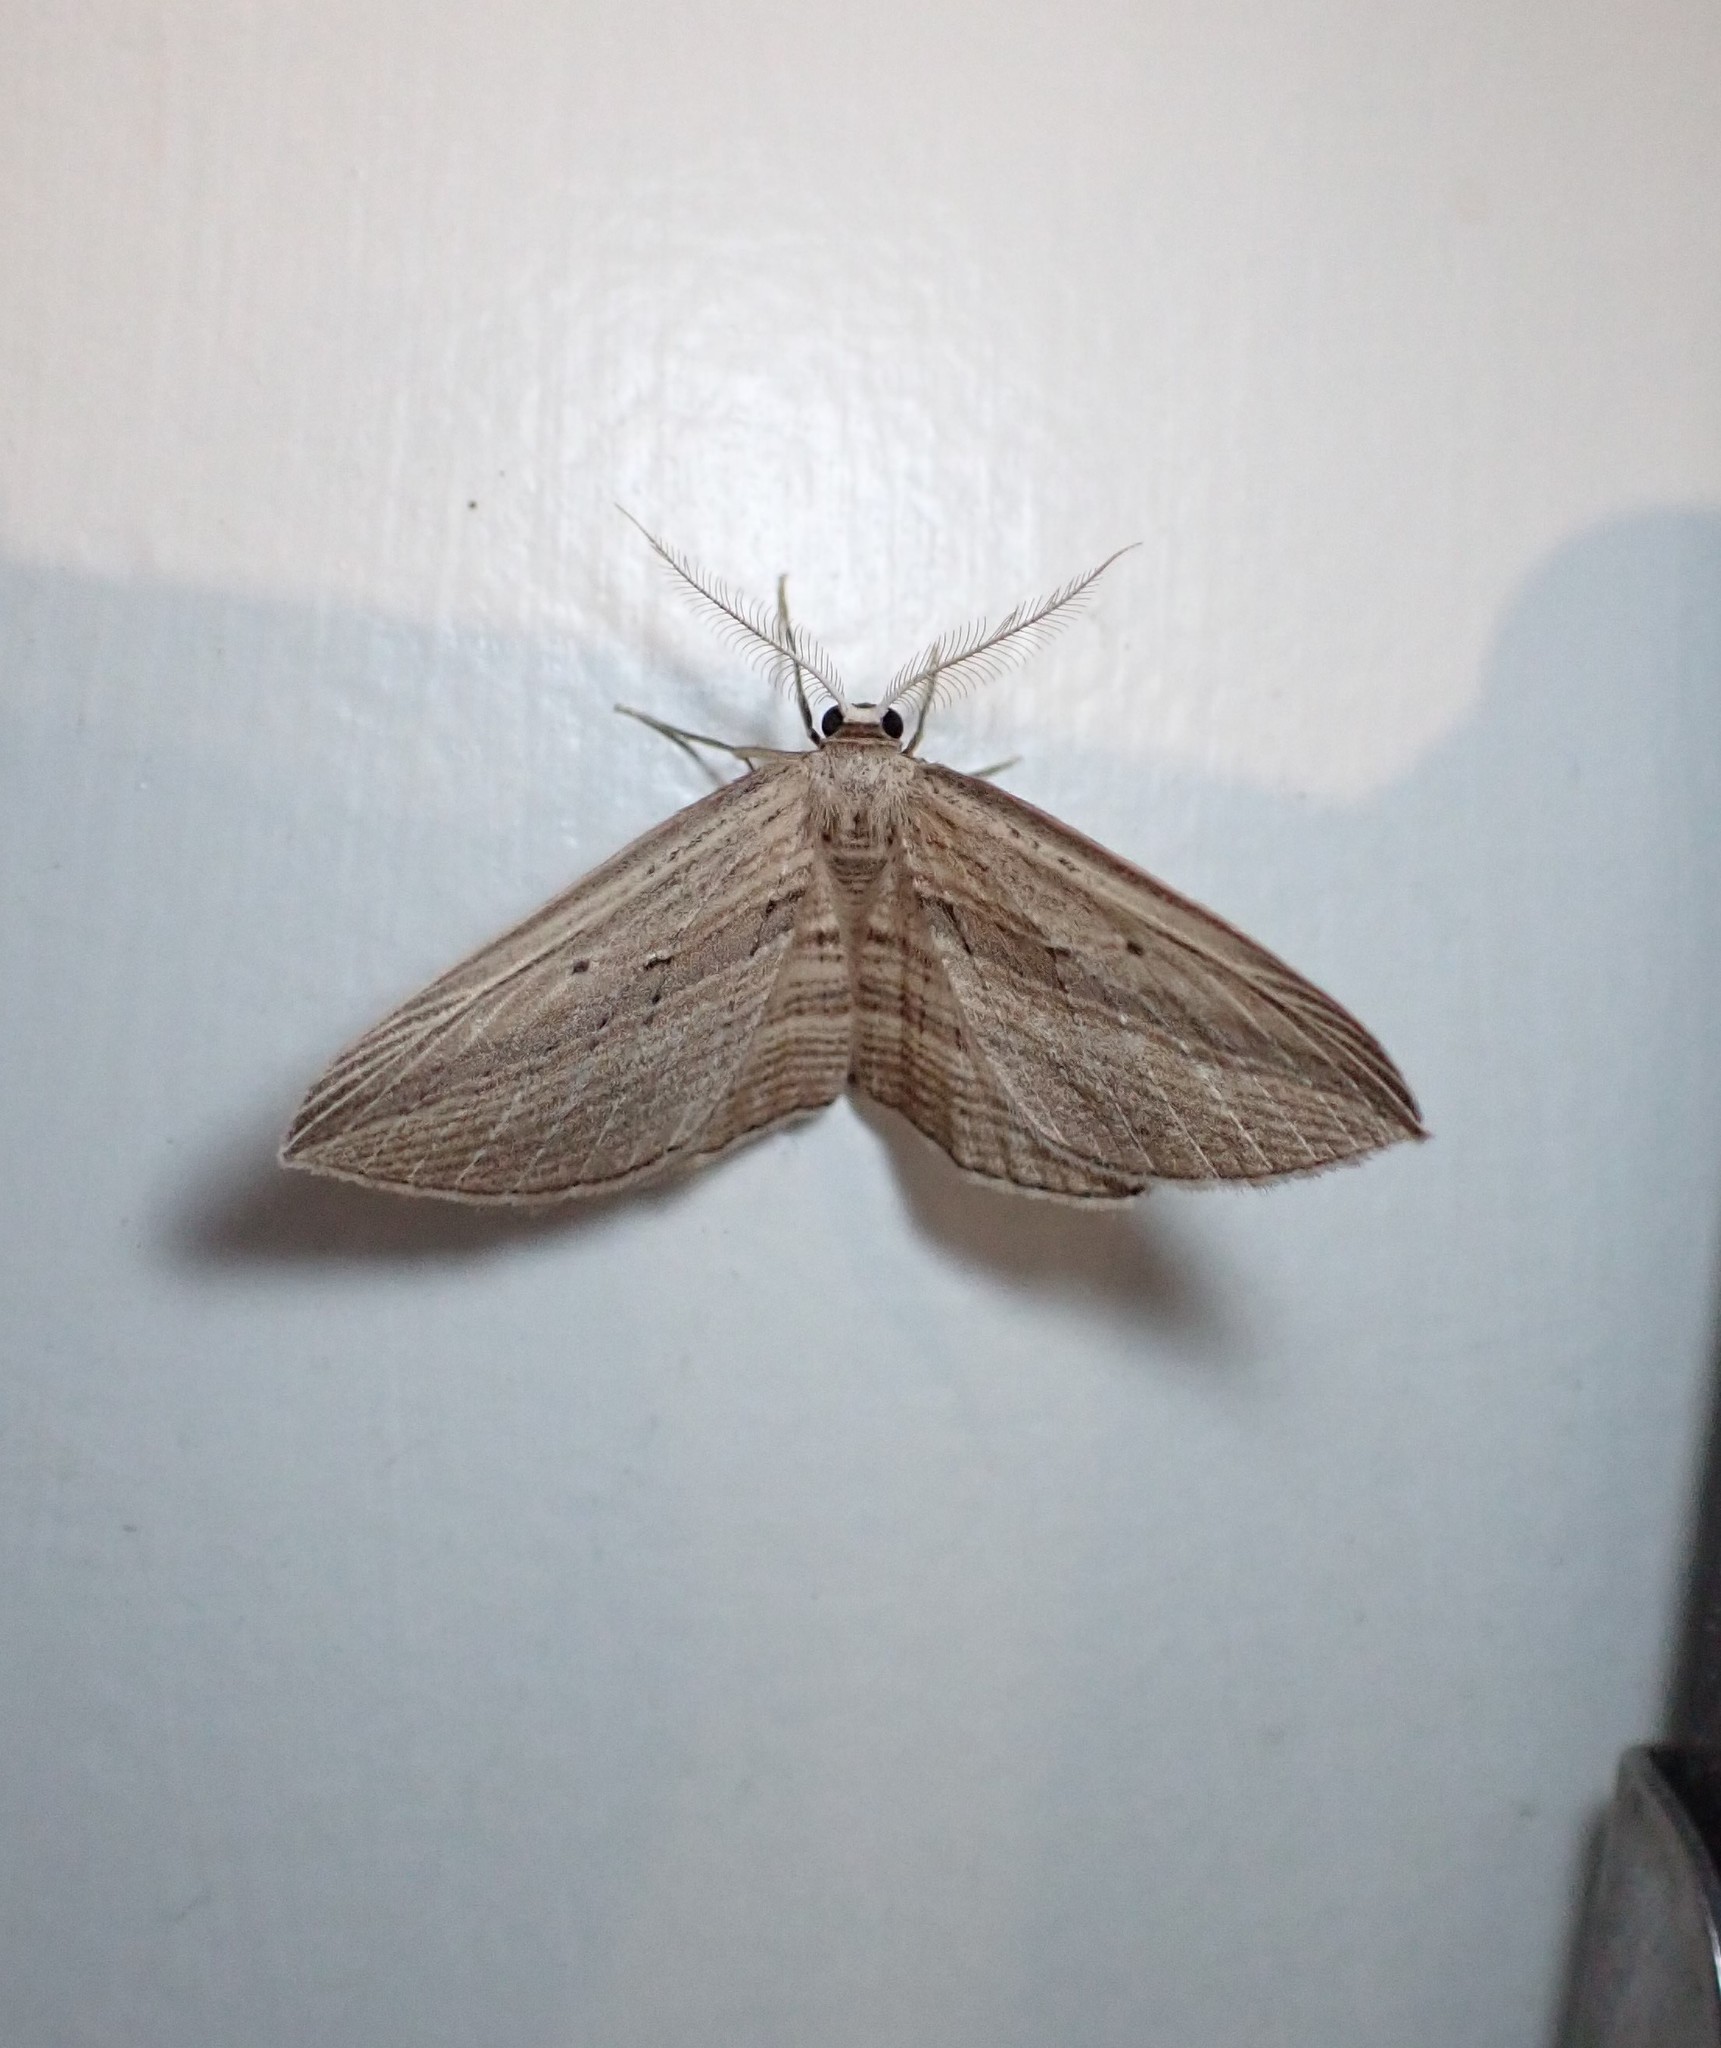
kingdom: Animalia
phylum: Arthropoda
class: Insecta
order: Lepidoptera
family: Geometridae
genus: Epiphryne
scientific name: Epiphryne verriculata
